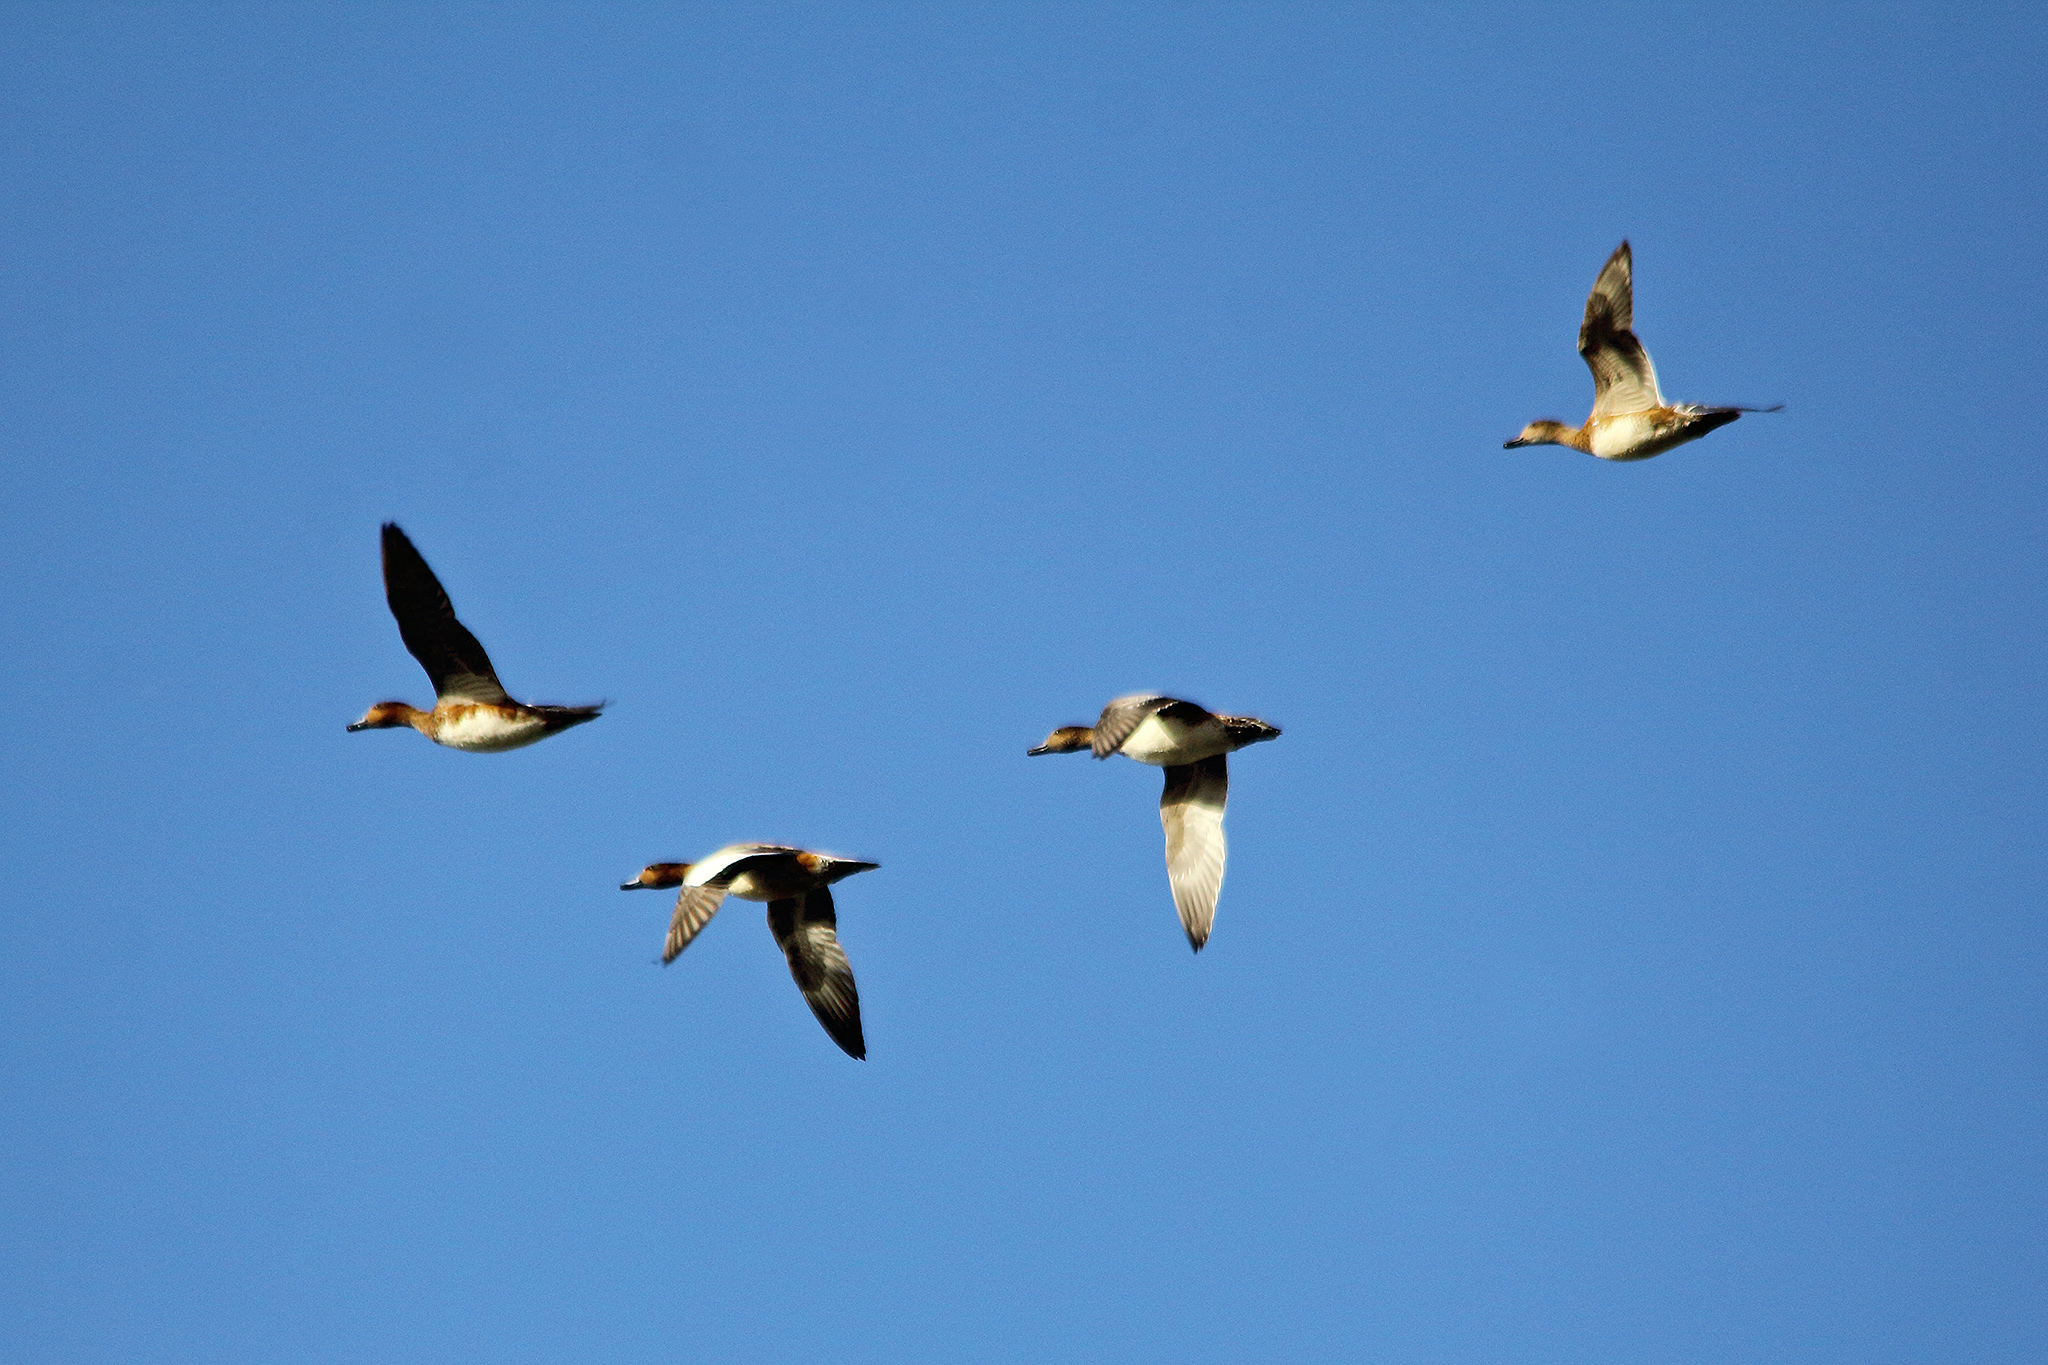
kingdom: Animalia
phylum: Chordata
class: Aves
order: Anseriformes
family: Anatidae
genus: Mareca
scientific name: Mareca penelope
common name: Eurasian wigeon
